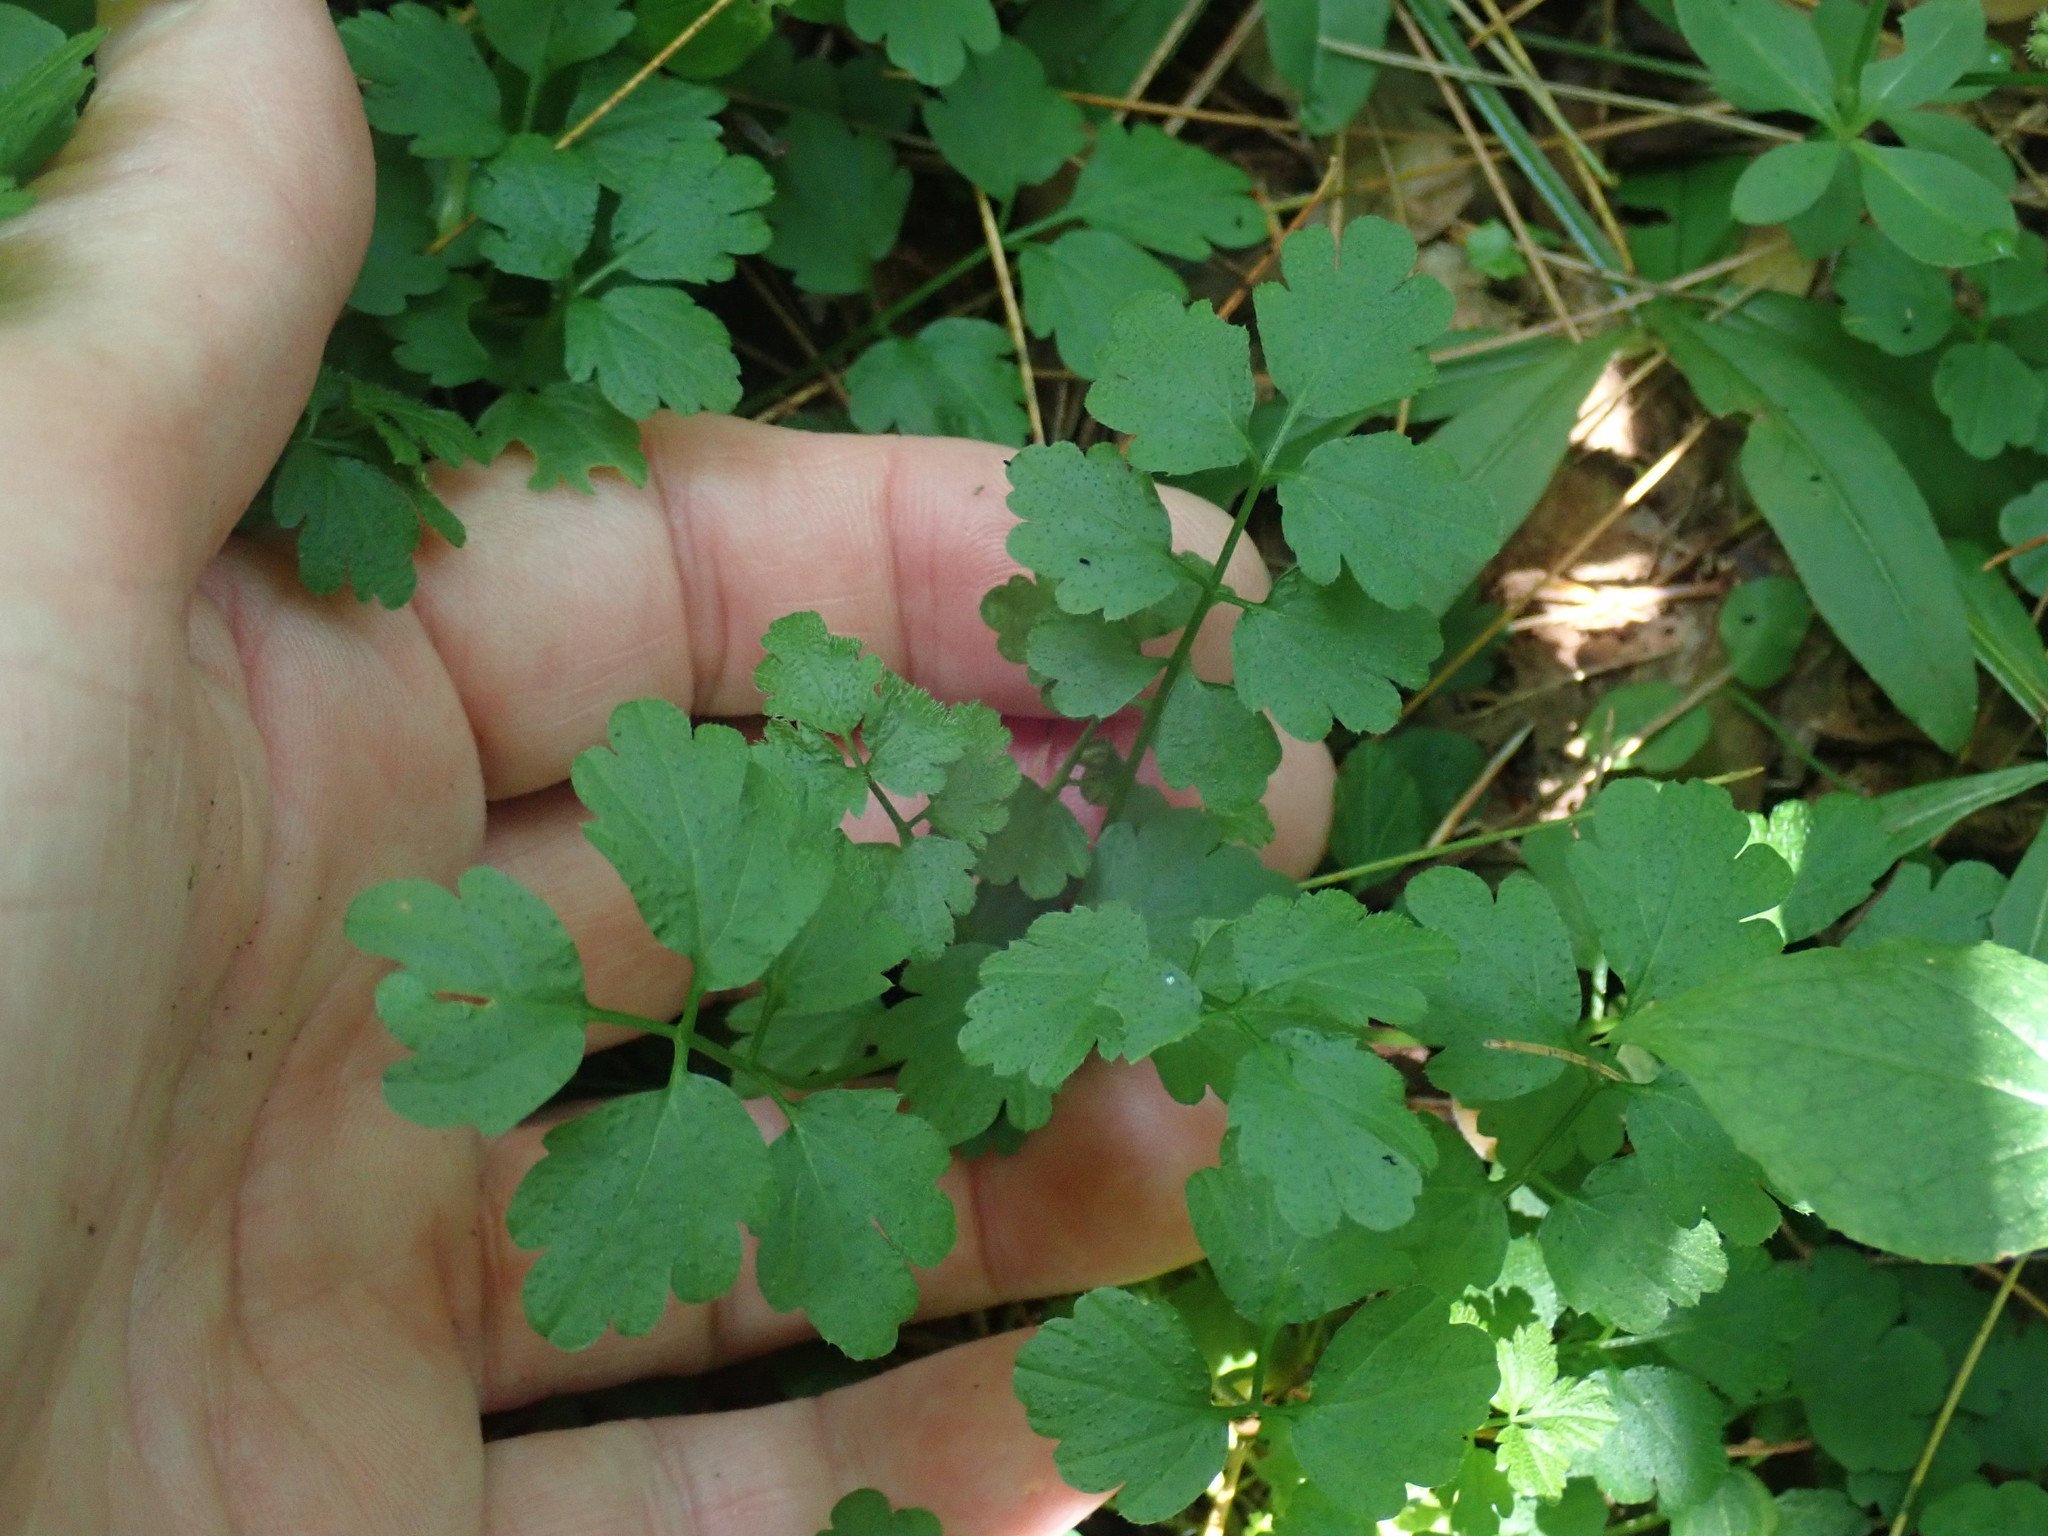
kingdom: Plantae
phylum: Tracheophyta
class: Magnoliopsida
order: Brassicales
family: Brassicaceae
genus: Cardamine
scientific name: Cardamine impatiens
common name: Narrow-leaved bitter-cress
